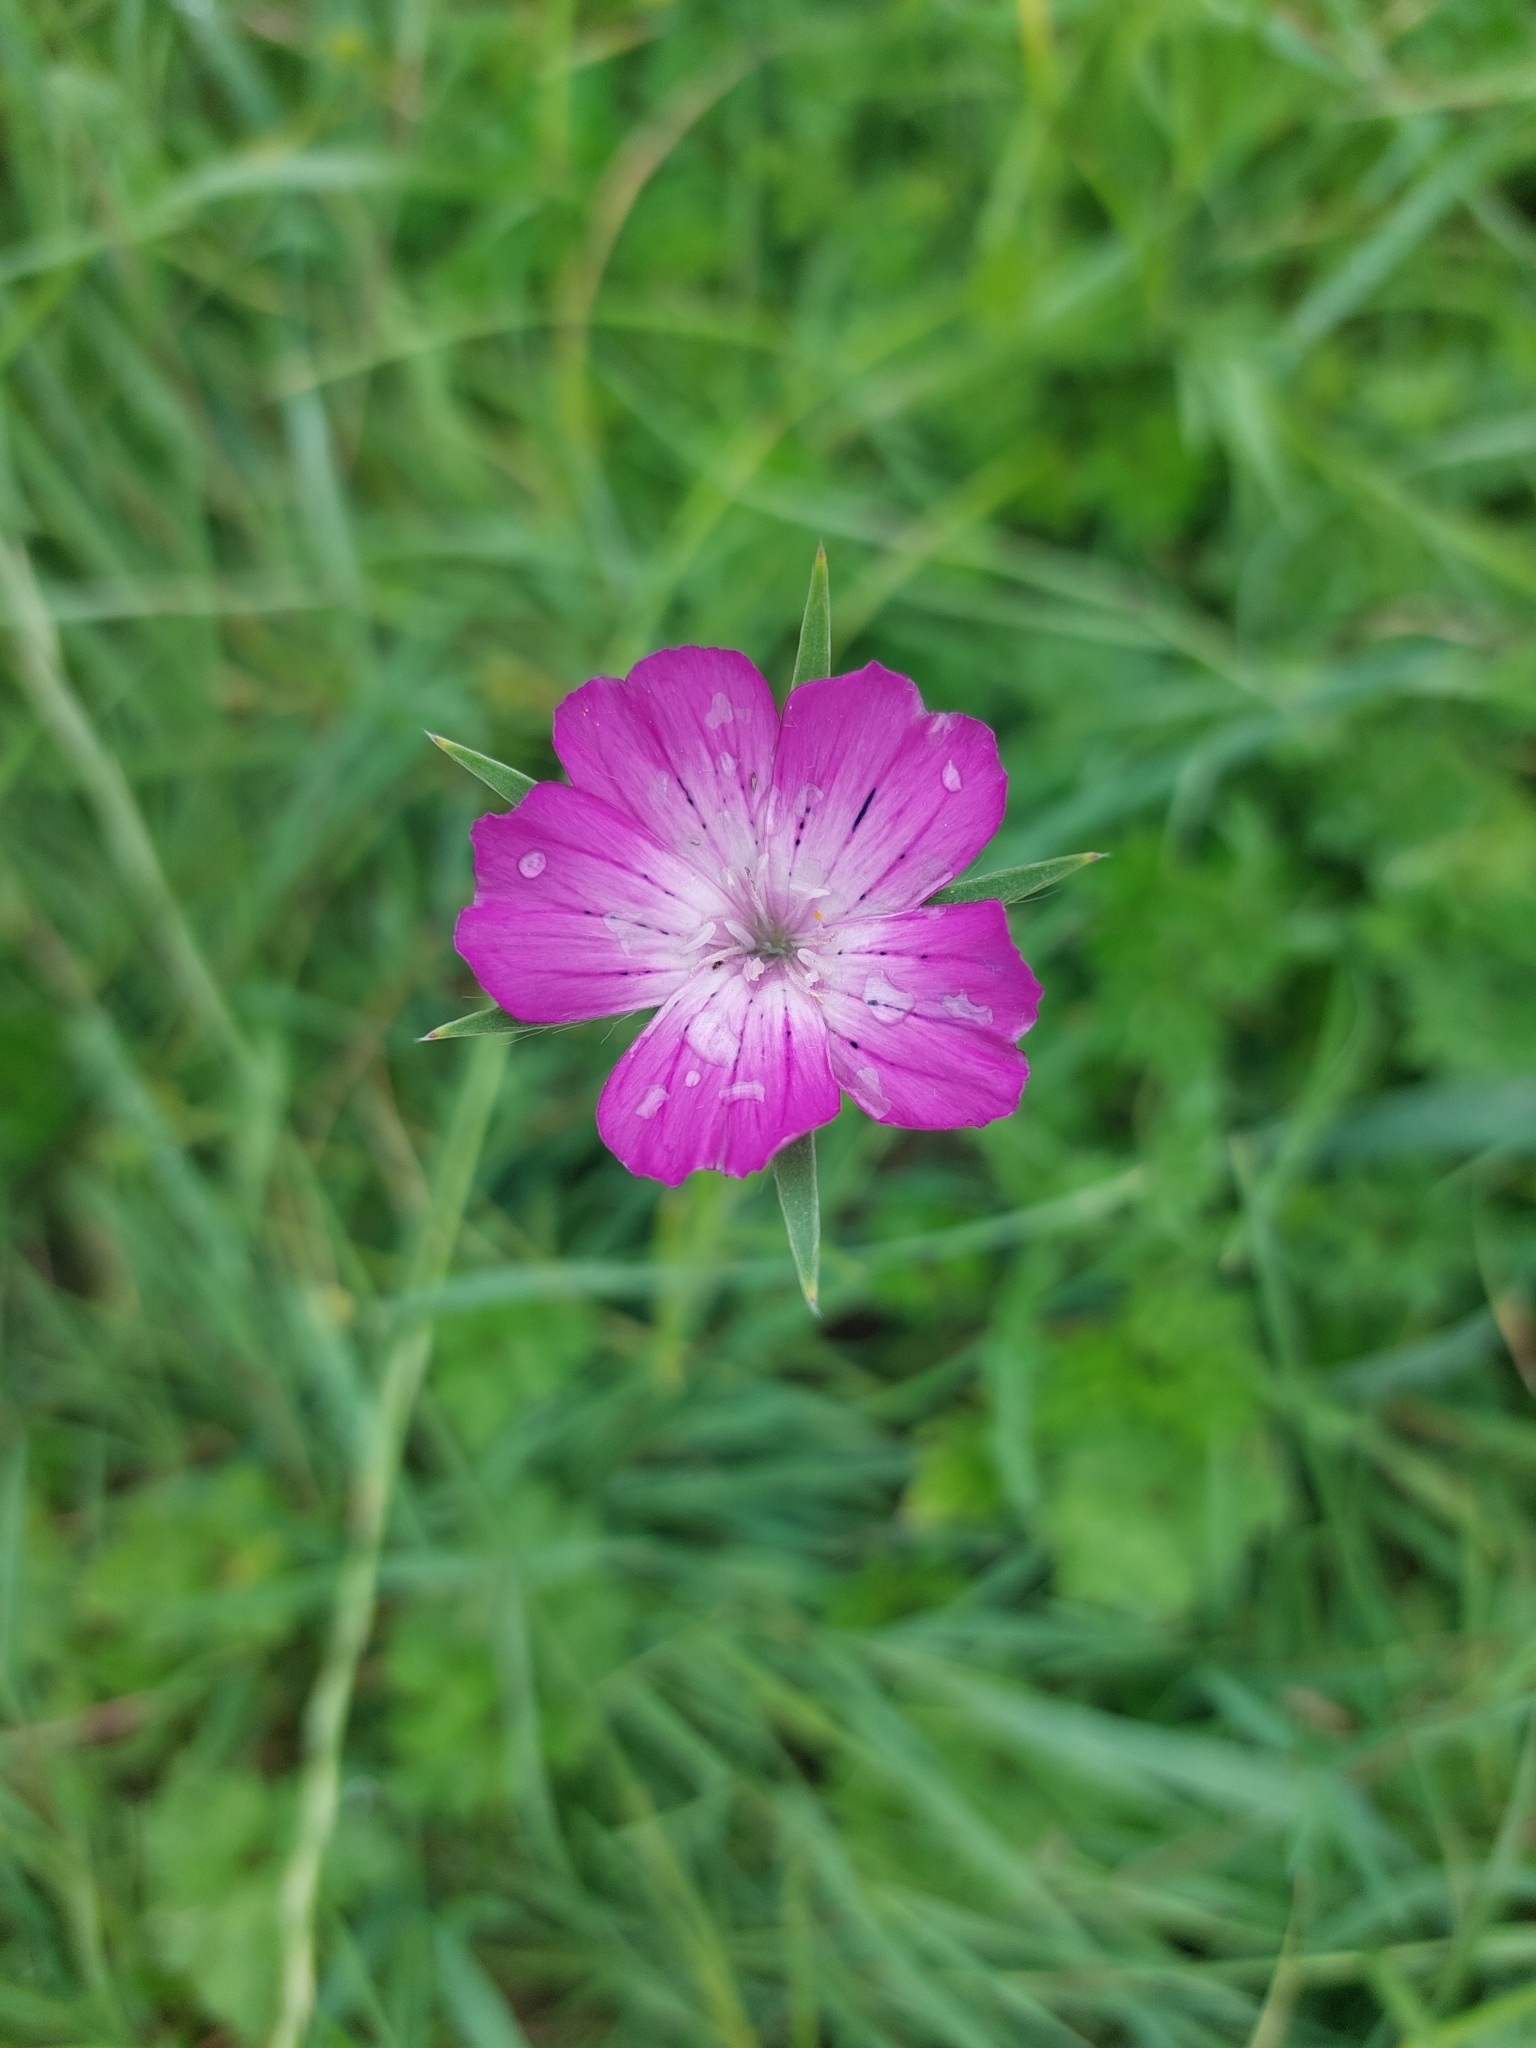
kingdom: Plantae
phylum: Tracheophyta
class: Magnoliopsida
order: Caryophyllales
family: Caryophyllaceae
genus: Agrostemma
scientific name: Agrostemma githago
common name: Common corncockle
